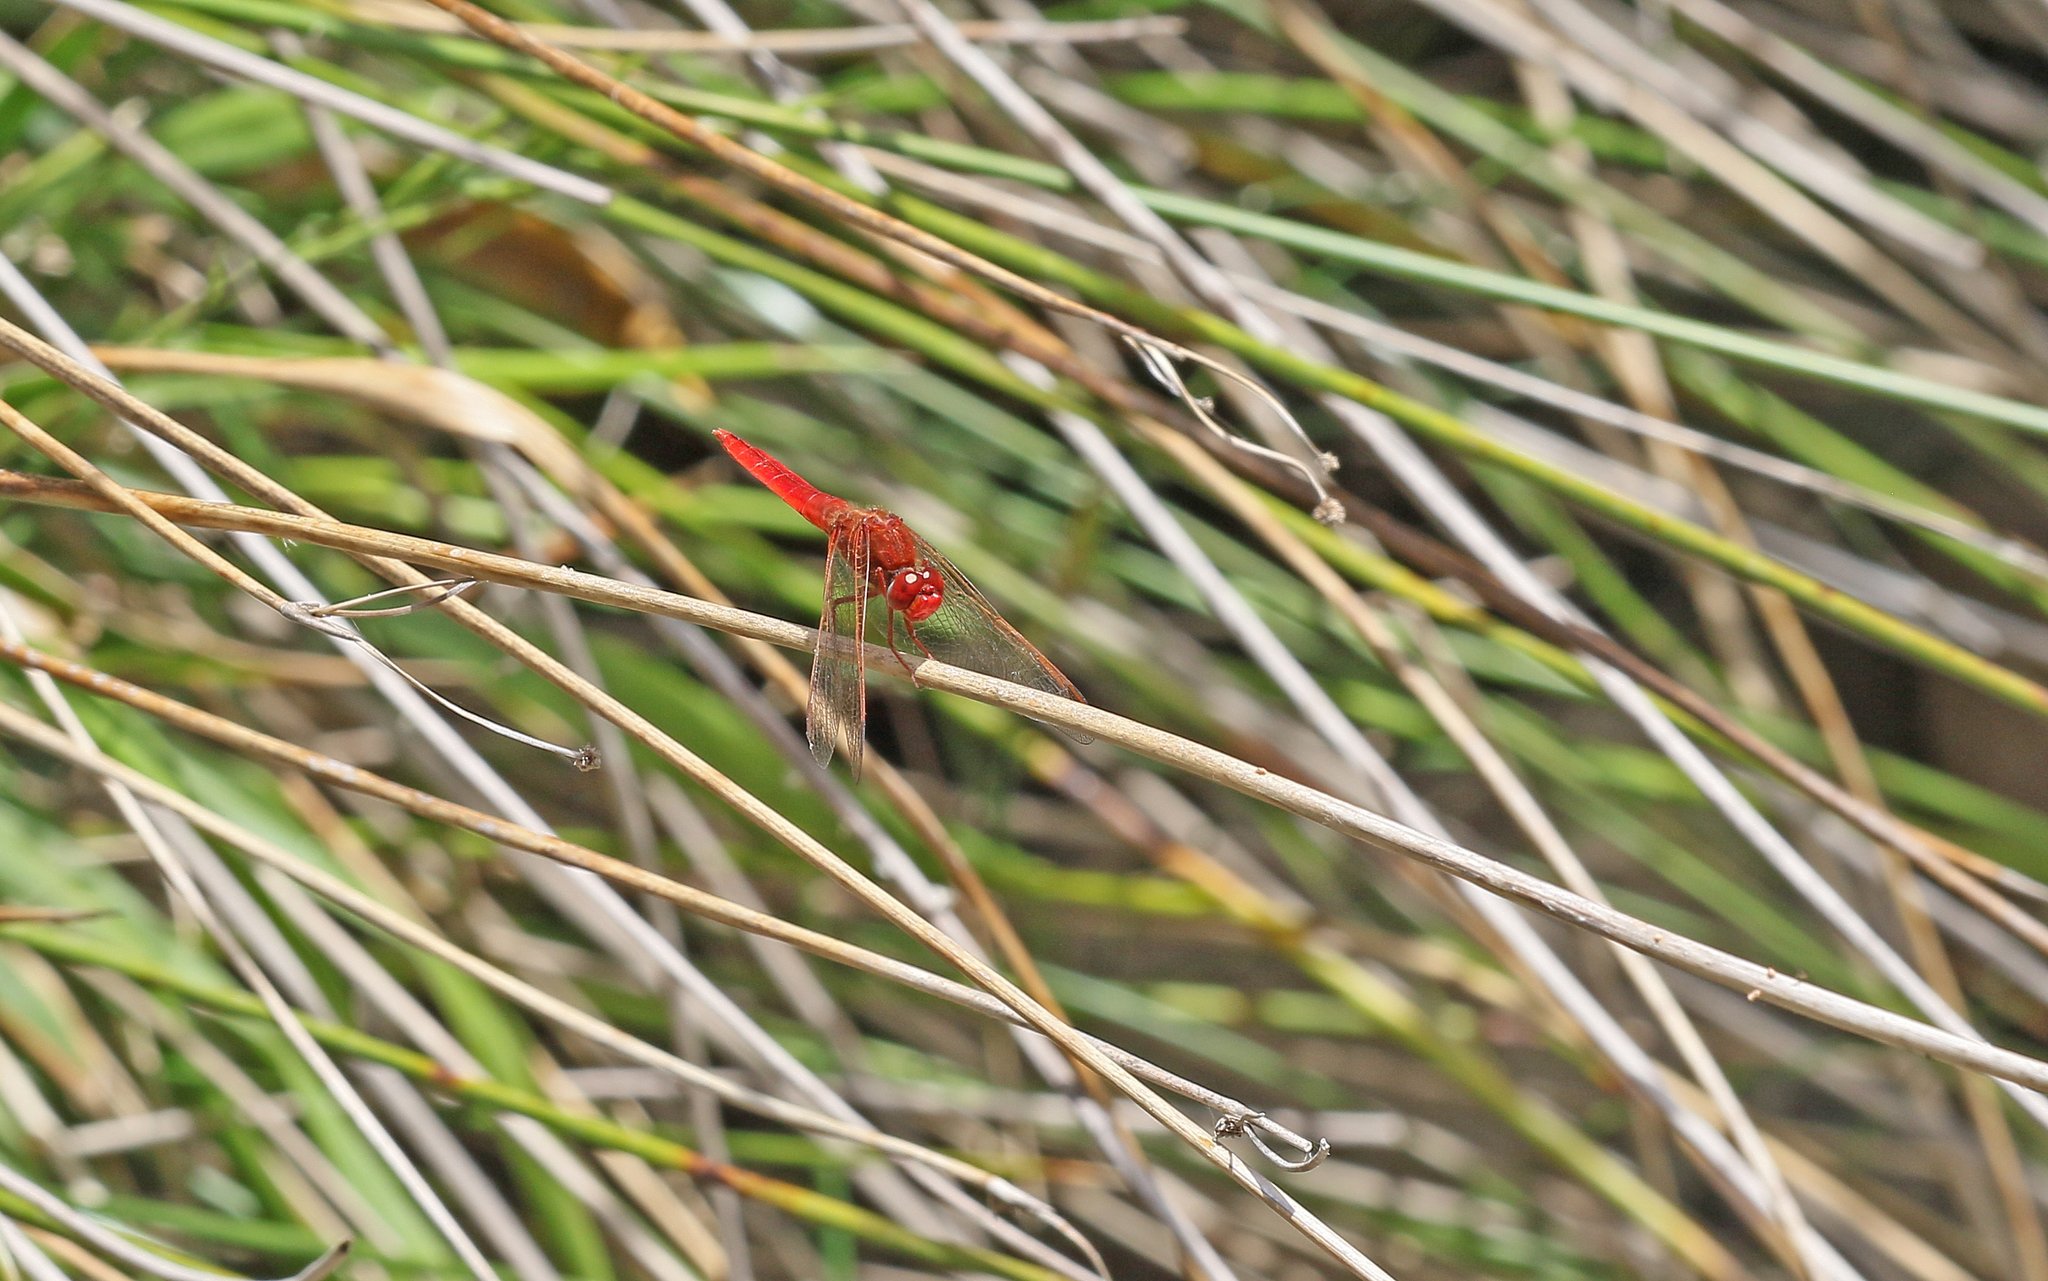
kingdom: Animalia
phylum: Arthropoda
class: Insecta
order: Odonata
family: Libellulidae
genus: Crocothemis
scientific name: Crocothemis erythraea
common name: Scarlet dragonfly
